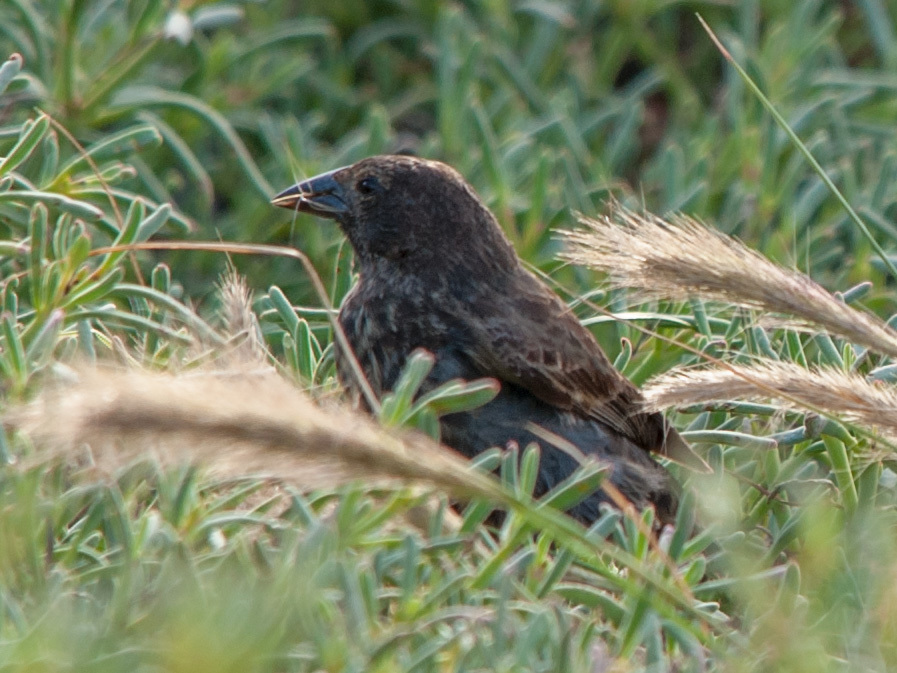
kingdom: Animalia
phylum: Chordata
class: Aves
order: Passeriformes
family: Thraupidae
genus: Geospiza
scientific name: Geospiza scandens
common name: Common cactus-finch
